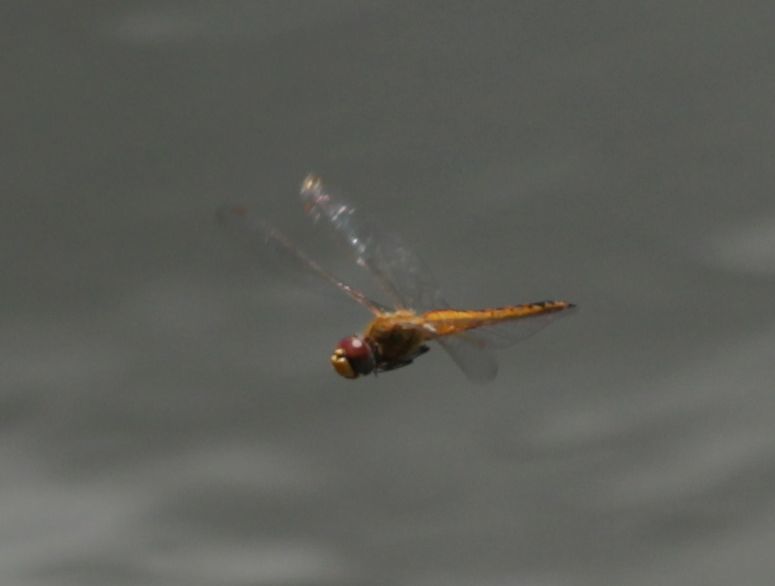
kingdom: Animalia
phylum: Arthropoda
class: Insecta
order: Odonata
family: Libellulidae
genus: Pantala
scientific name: Pantala flavescens
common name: Wandering glider
